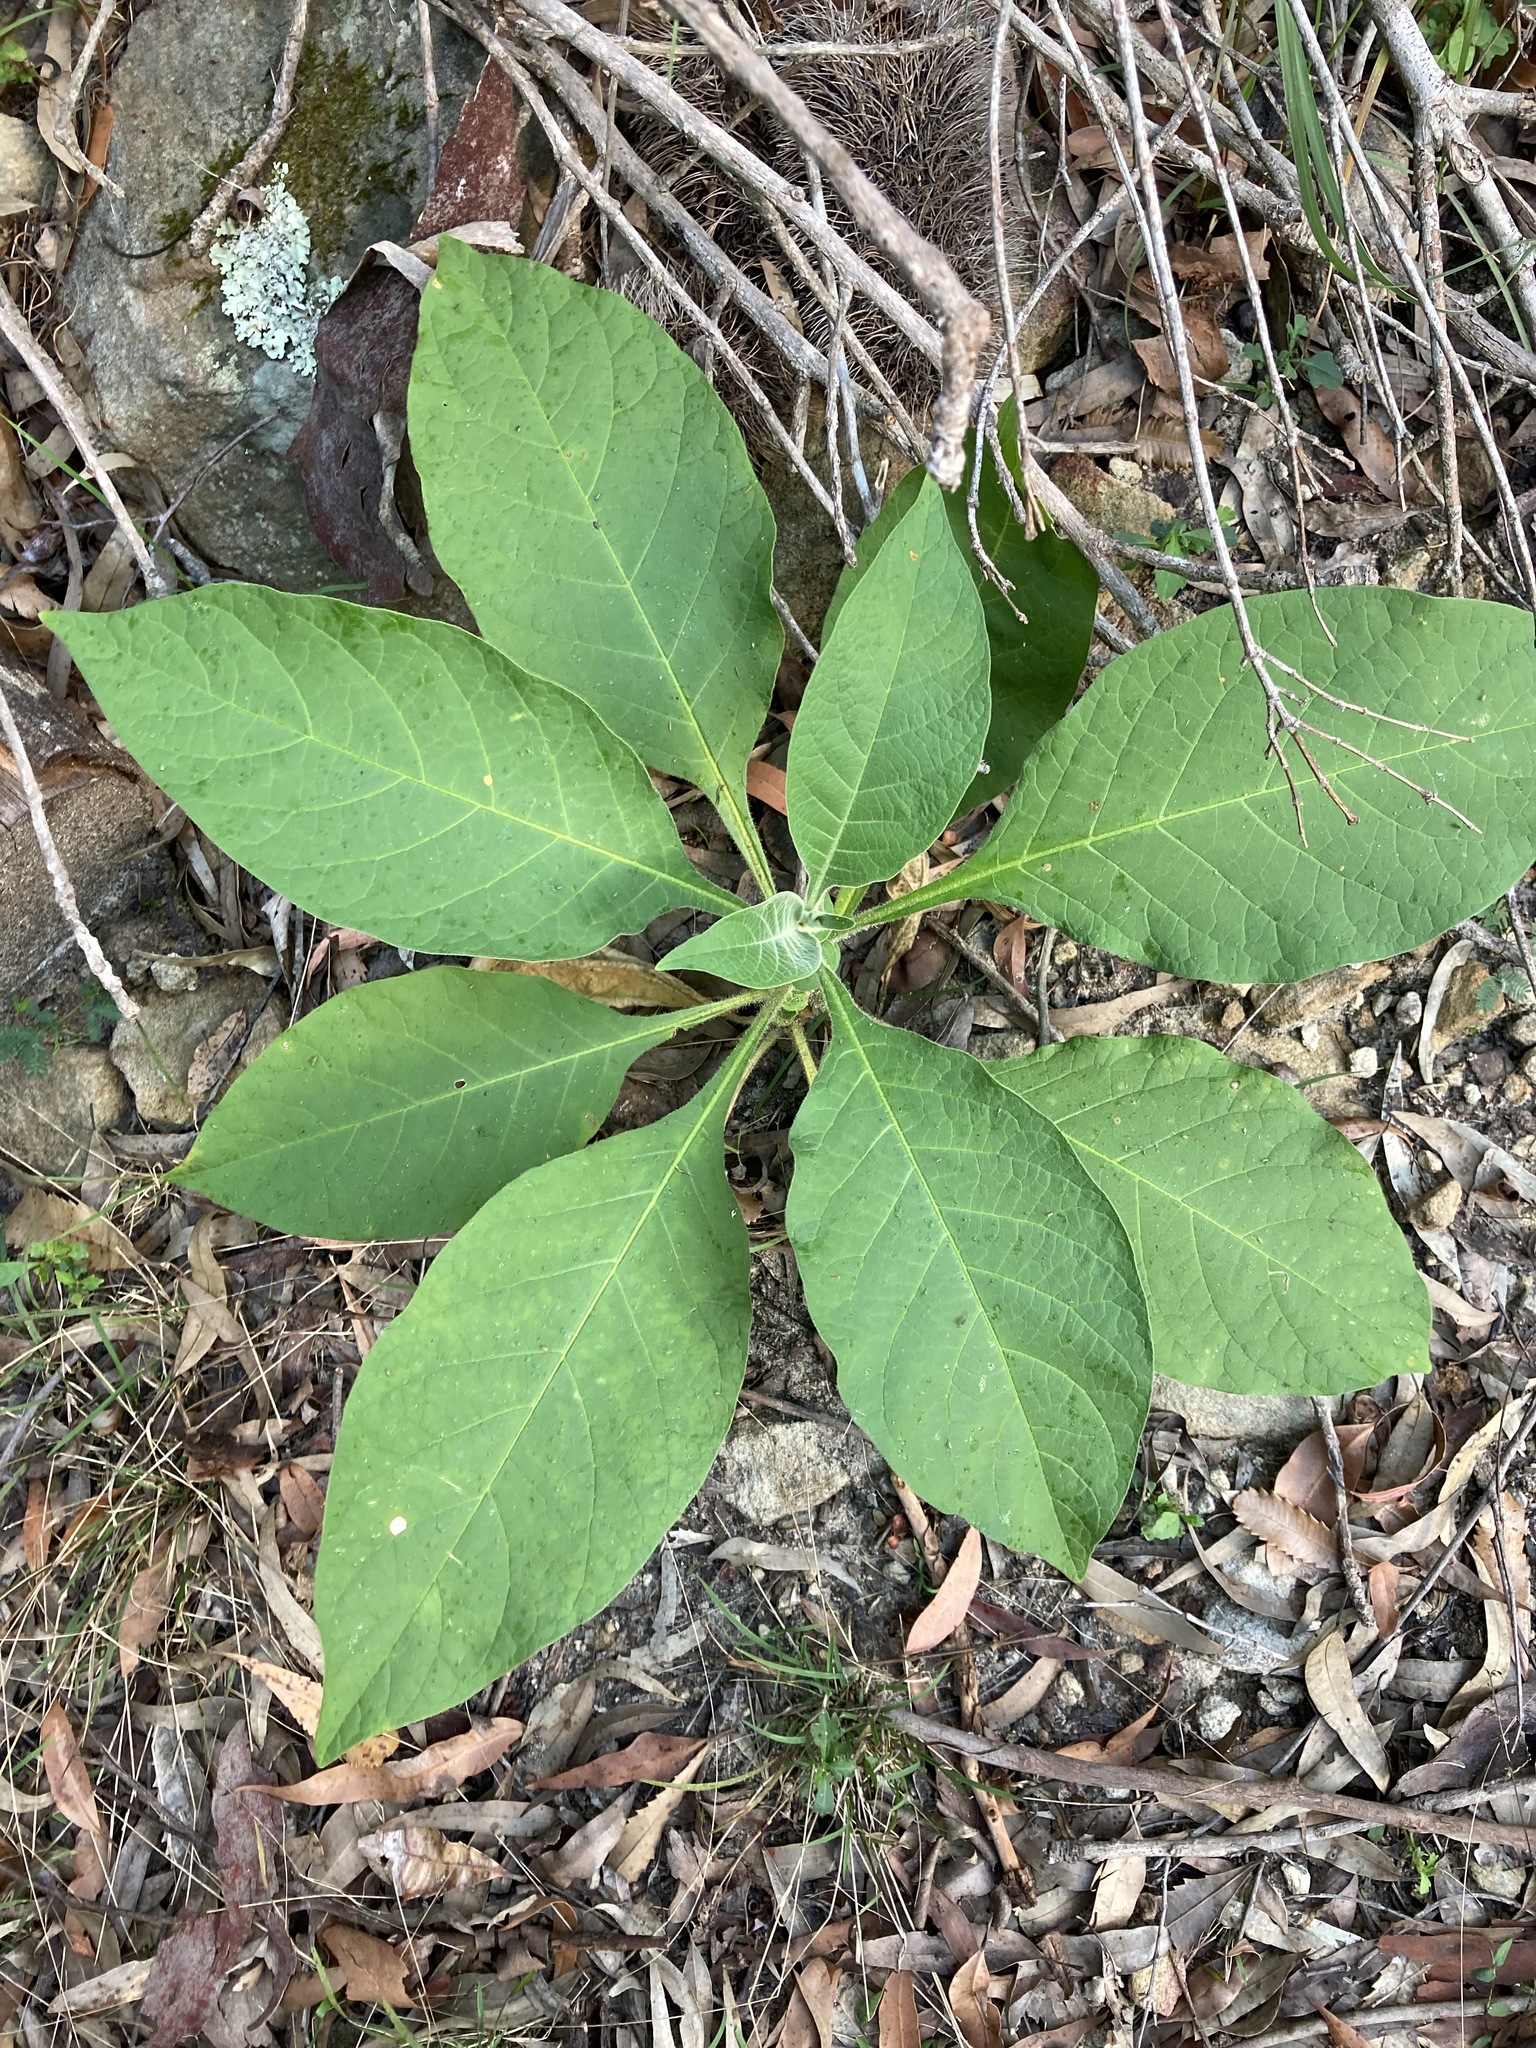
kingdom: Plantae
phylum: Tracheophyta
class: Magnoliopsida
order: Solanales
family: Solanaceae
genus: Solanum
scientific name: Solanum mauritianum
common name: Earleaf nightshade
